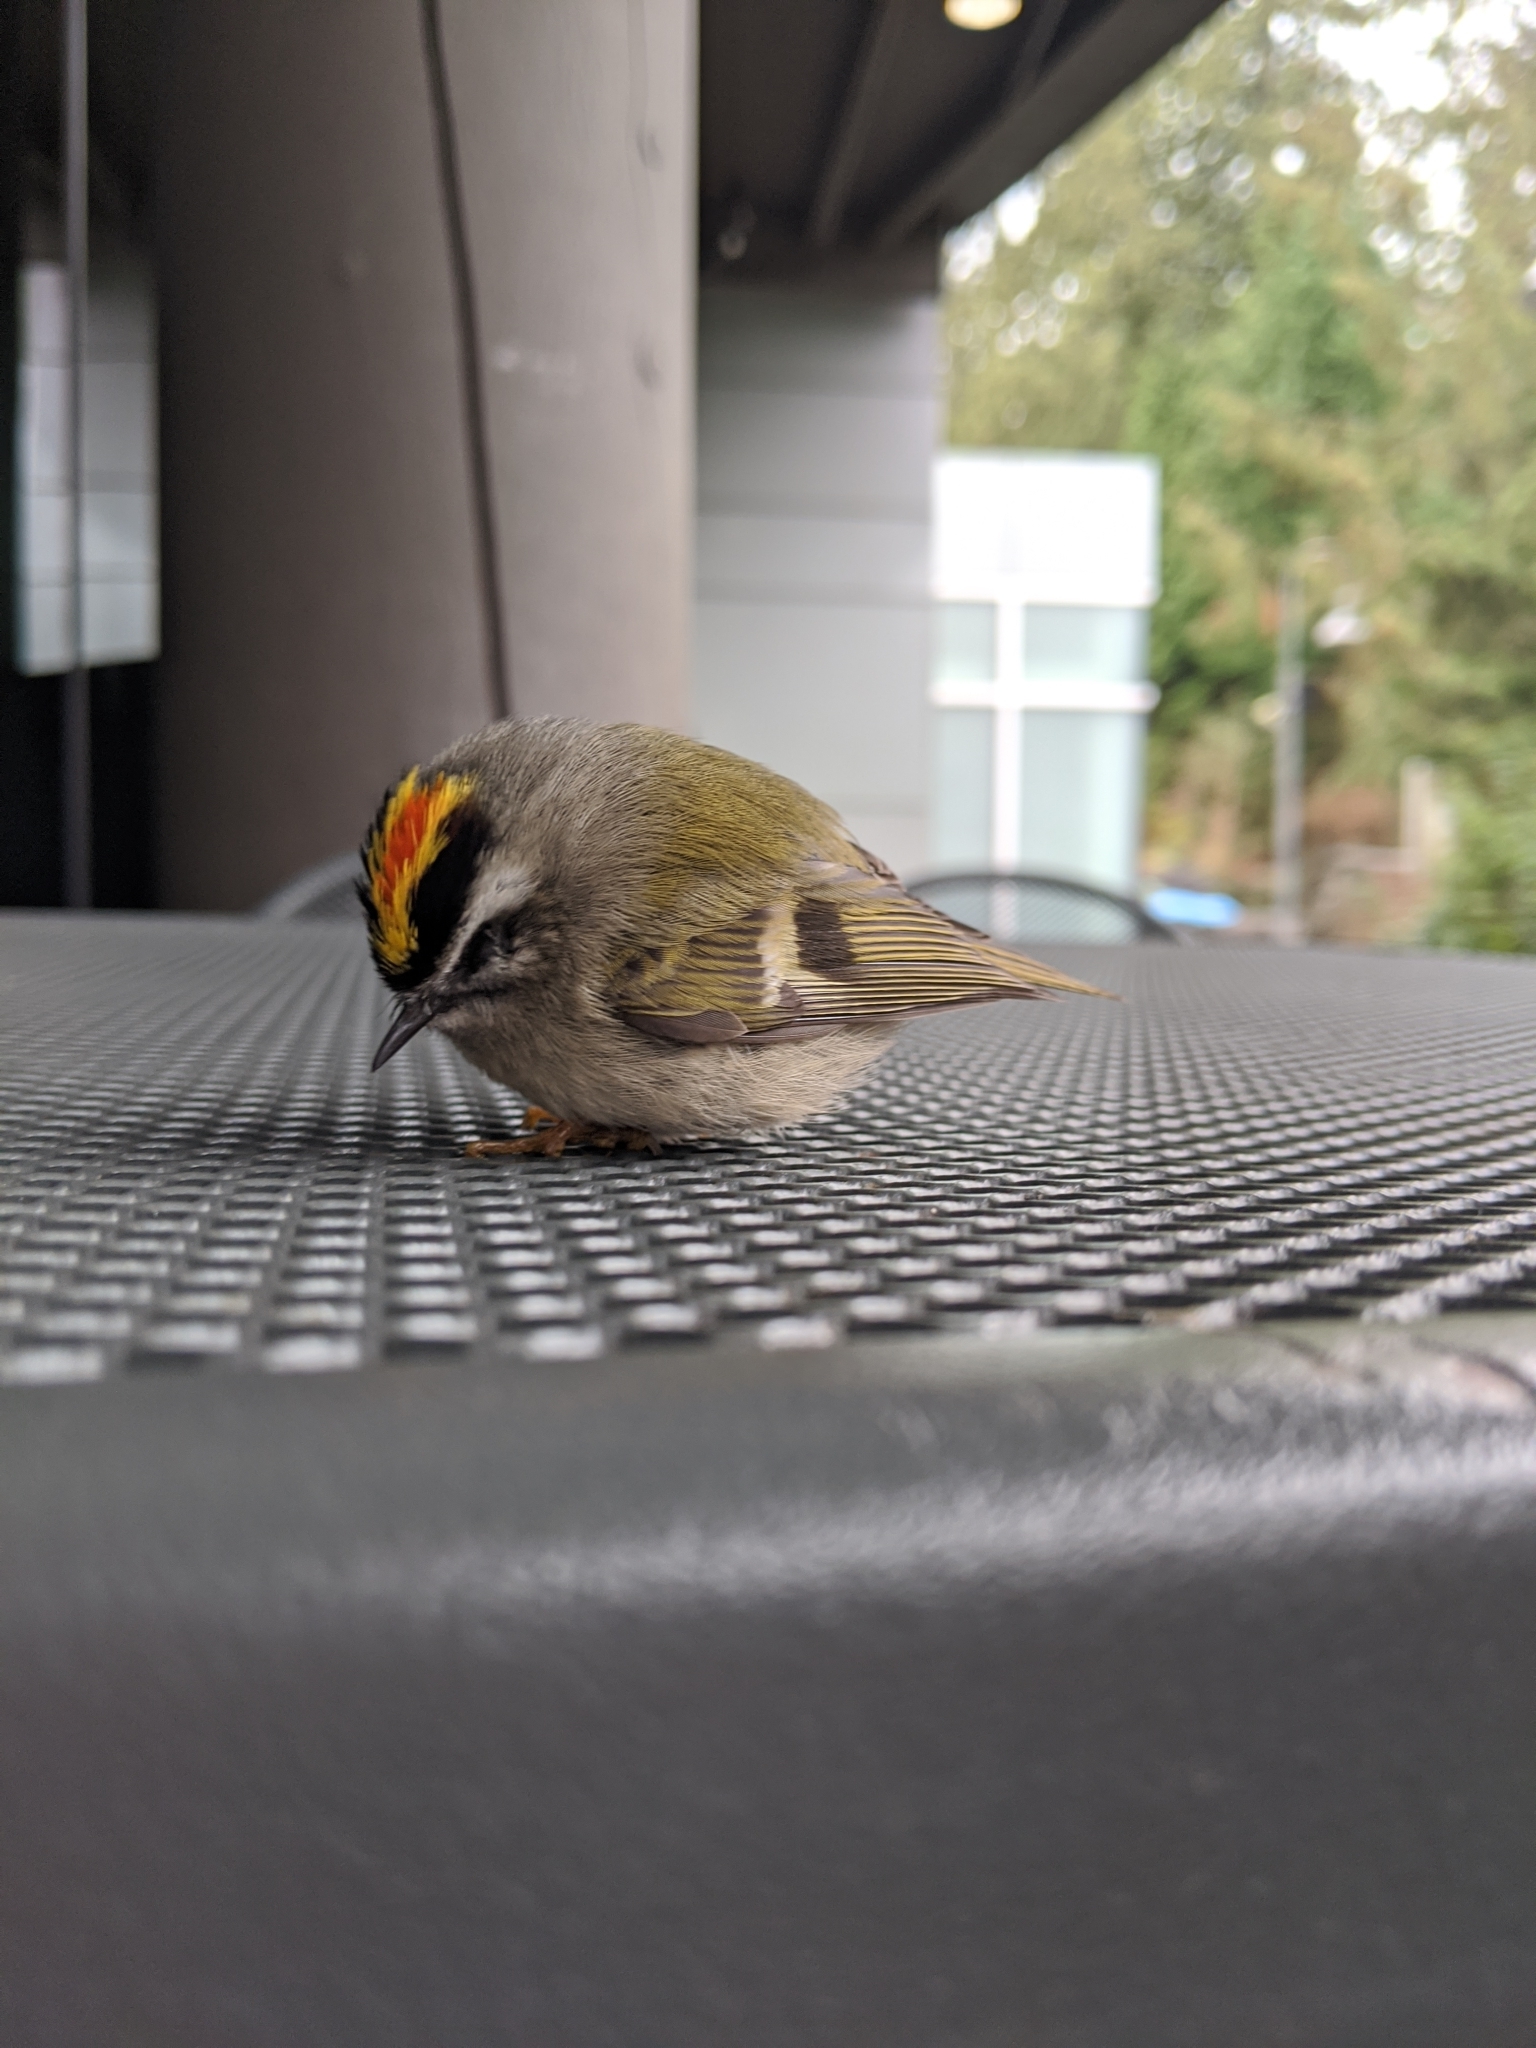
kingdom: Animalia
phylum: Chordata
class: Aves
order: Passeriformes
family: Regulidae
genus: Regulus
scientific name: Regulus satrapa
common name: Golden-crowned kinglet
